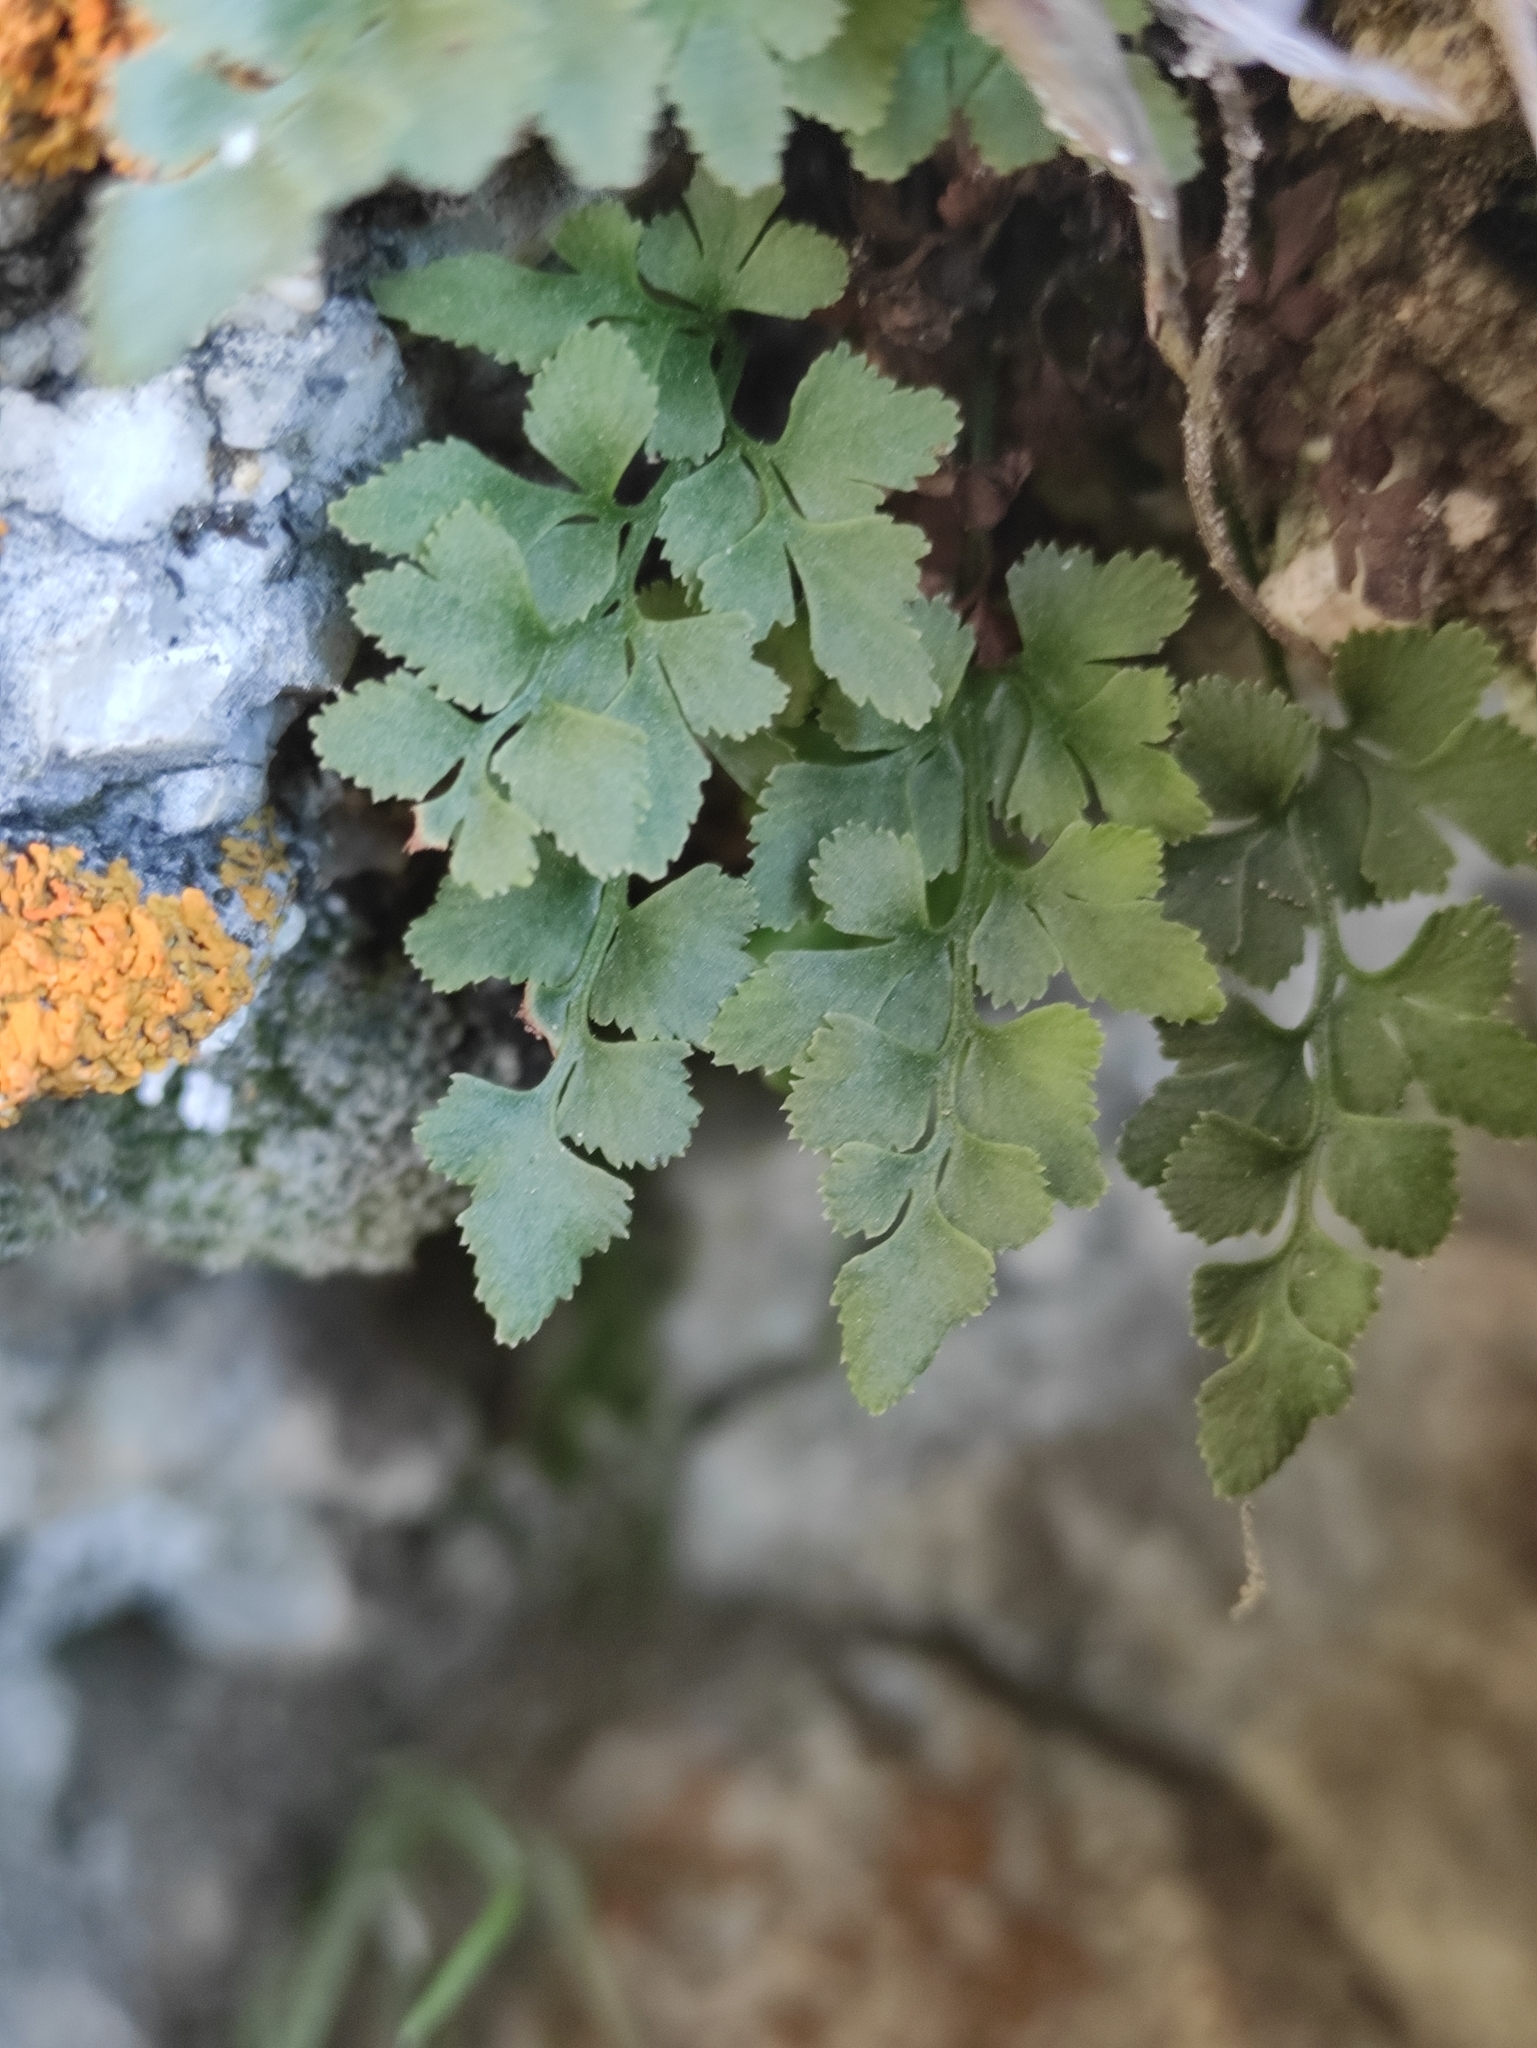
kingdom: Plantae
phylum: Tracheophyta
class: Polypodiopsida
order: Polypodiales
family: Aspleniaceae
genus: Asplenium
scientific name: Asplenium ruta-muraria
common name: Wall-rue
